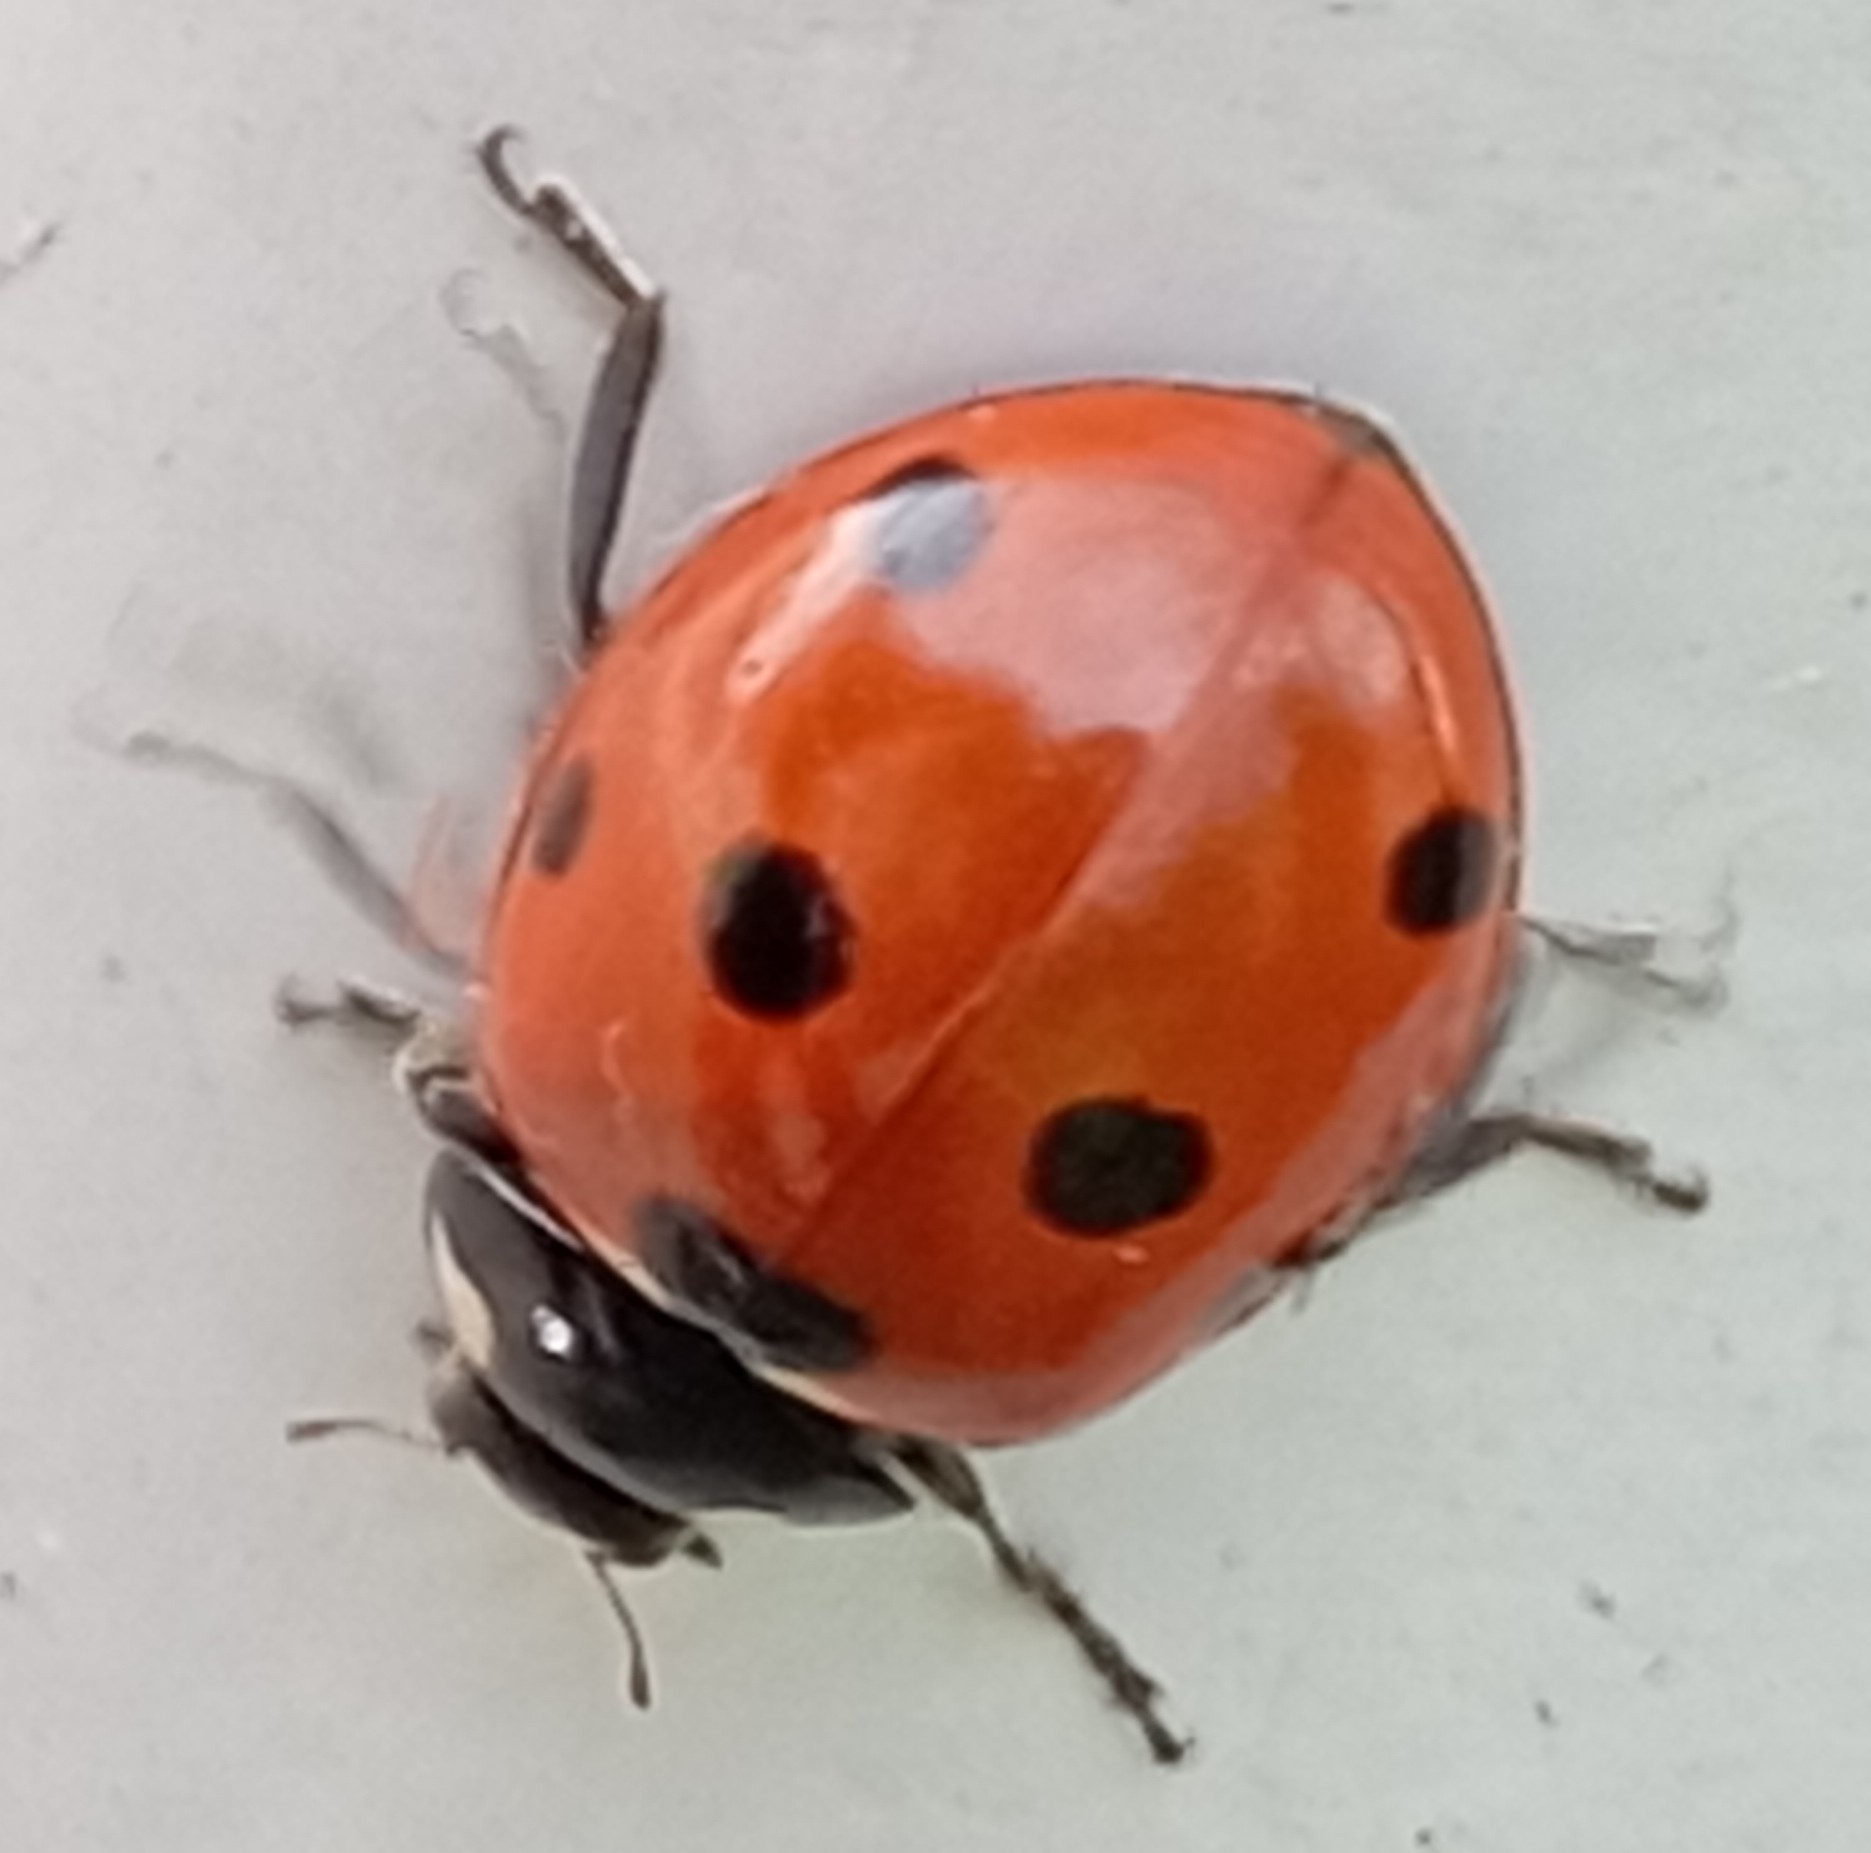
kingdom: Animalia
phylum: Arthropoda
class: Insecta
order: Coleoptera
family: Coccinellidae
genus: Coccinella
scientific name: Coccinella septempunctata
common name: Sevenspotted lady beetle
